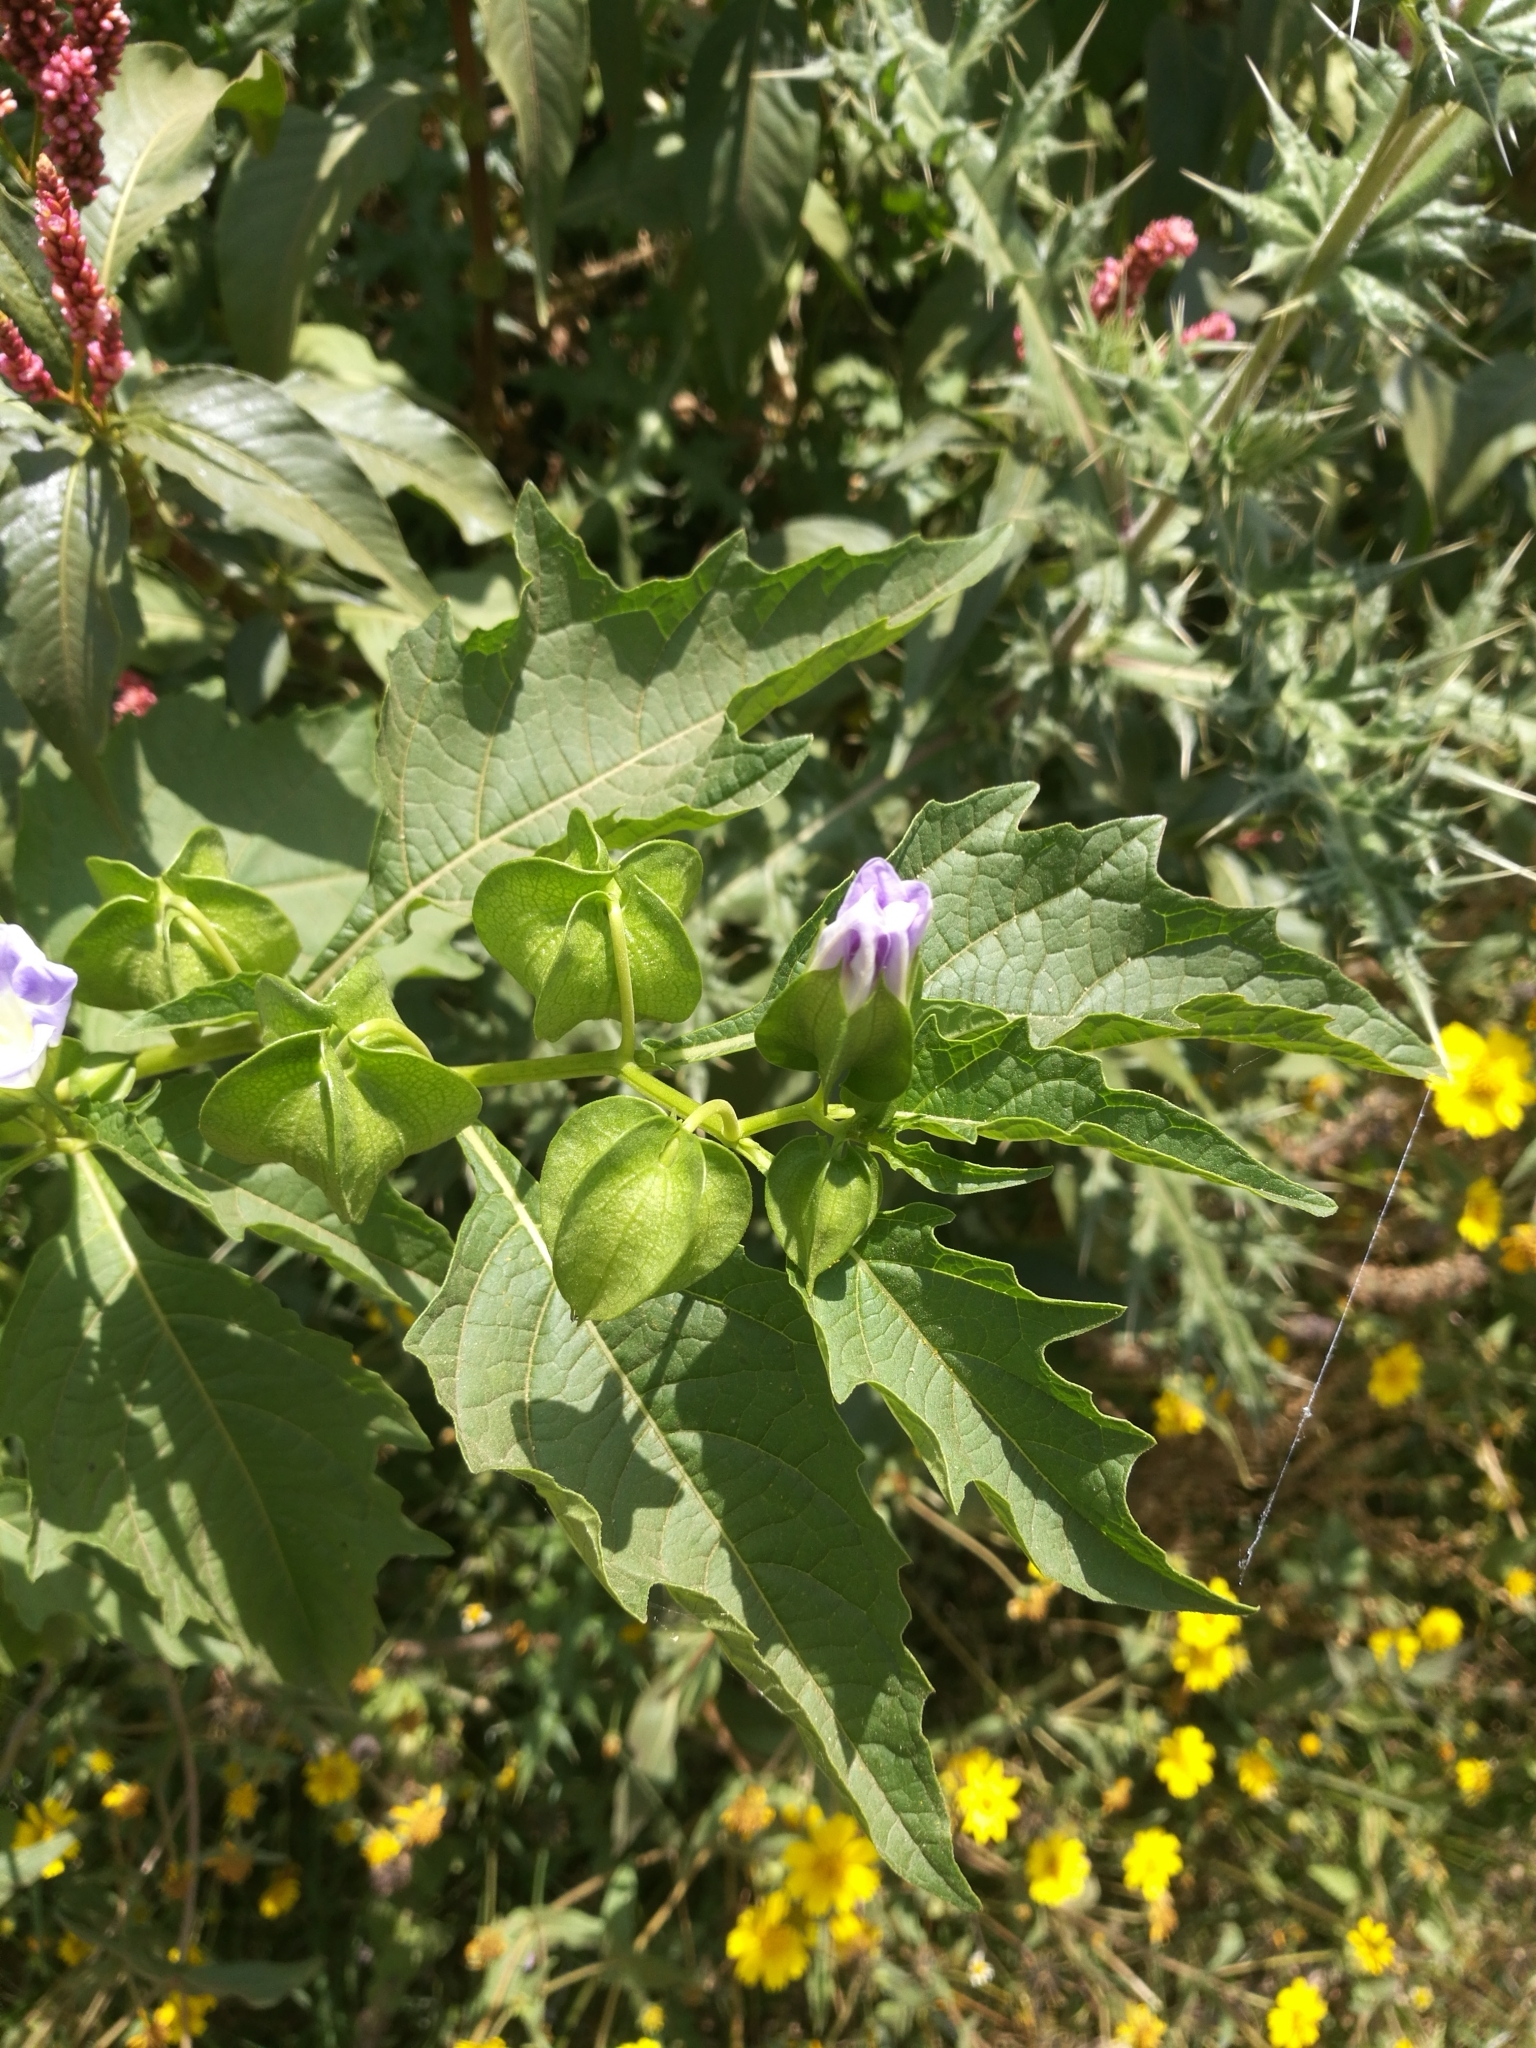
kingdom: Plantae
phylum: Tracheophyta
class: Magnoliopsida
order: Solanales
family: Solanaceae
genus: Nicandra
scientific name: Nicandra physalodes
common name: Apple-of-peru
